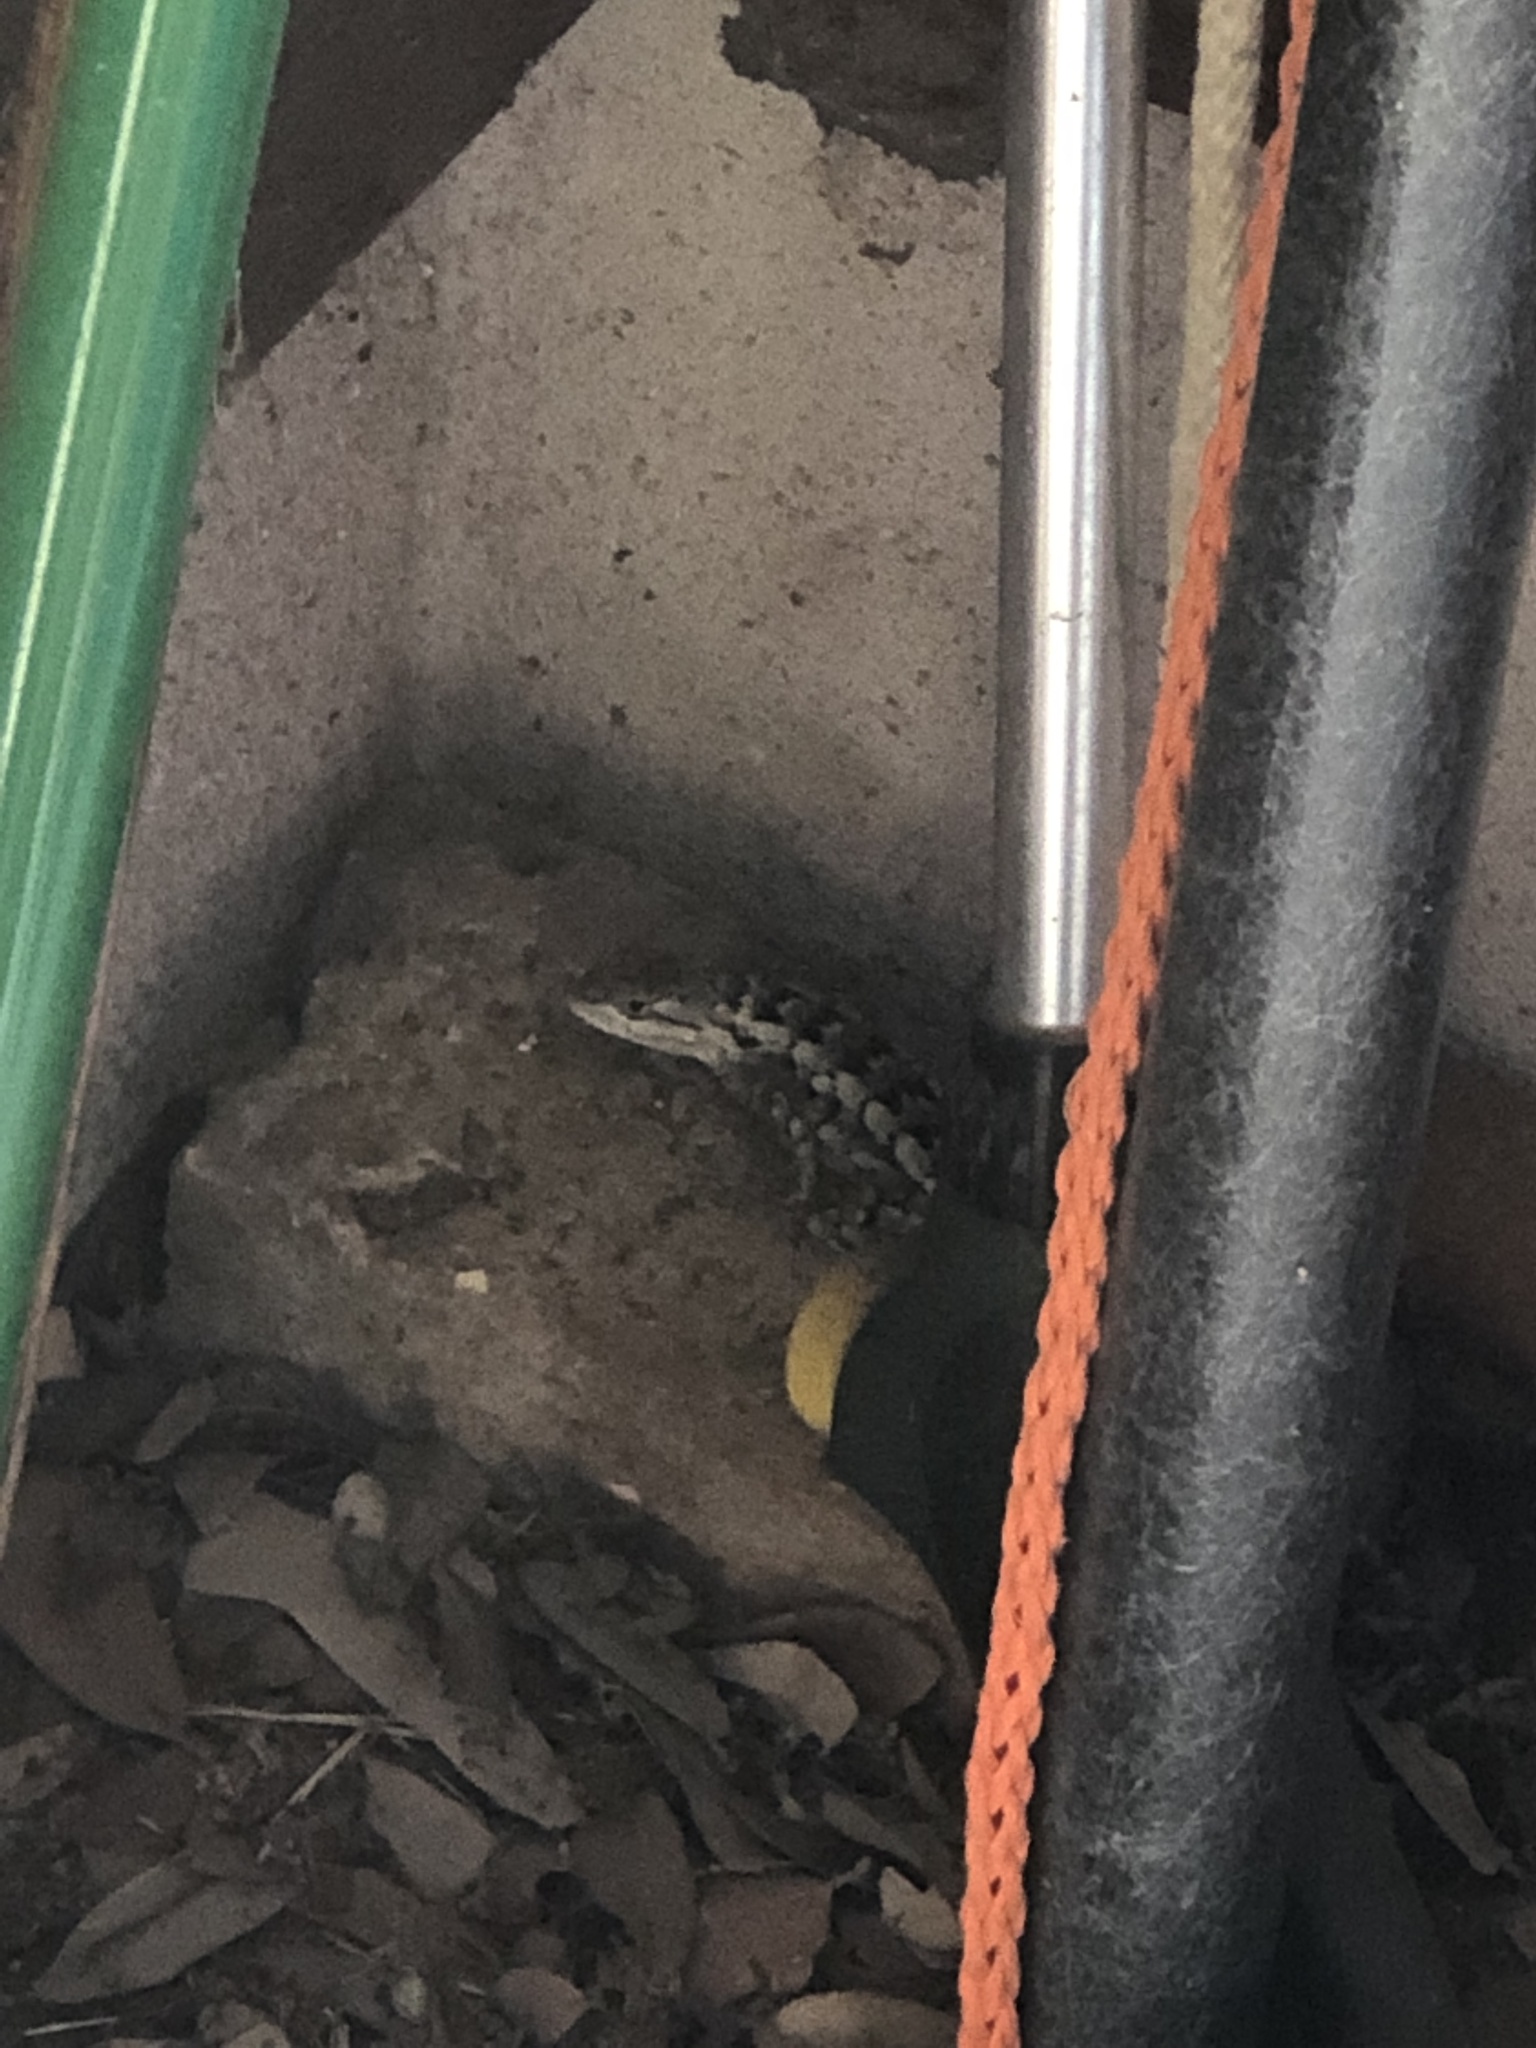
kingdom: Animalia
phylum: Chordata
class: Squamata
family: Phrynosomatidae
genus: Sceloporus
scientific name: Sceloporus olivaceus
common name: Texas spiny lizard
